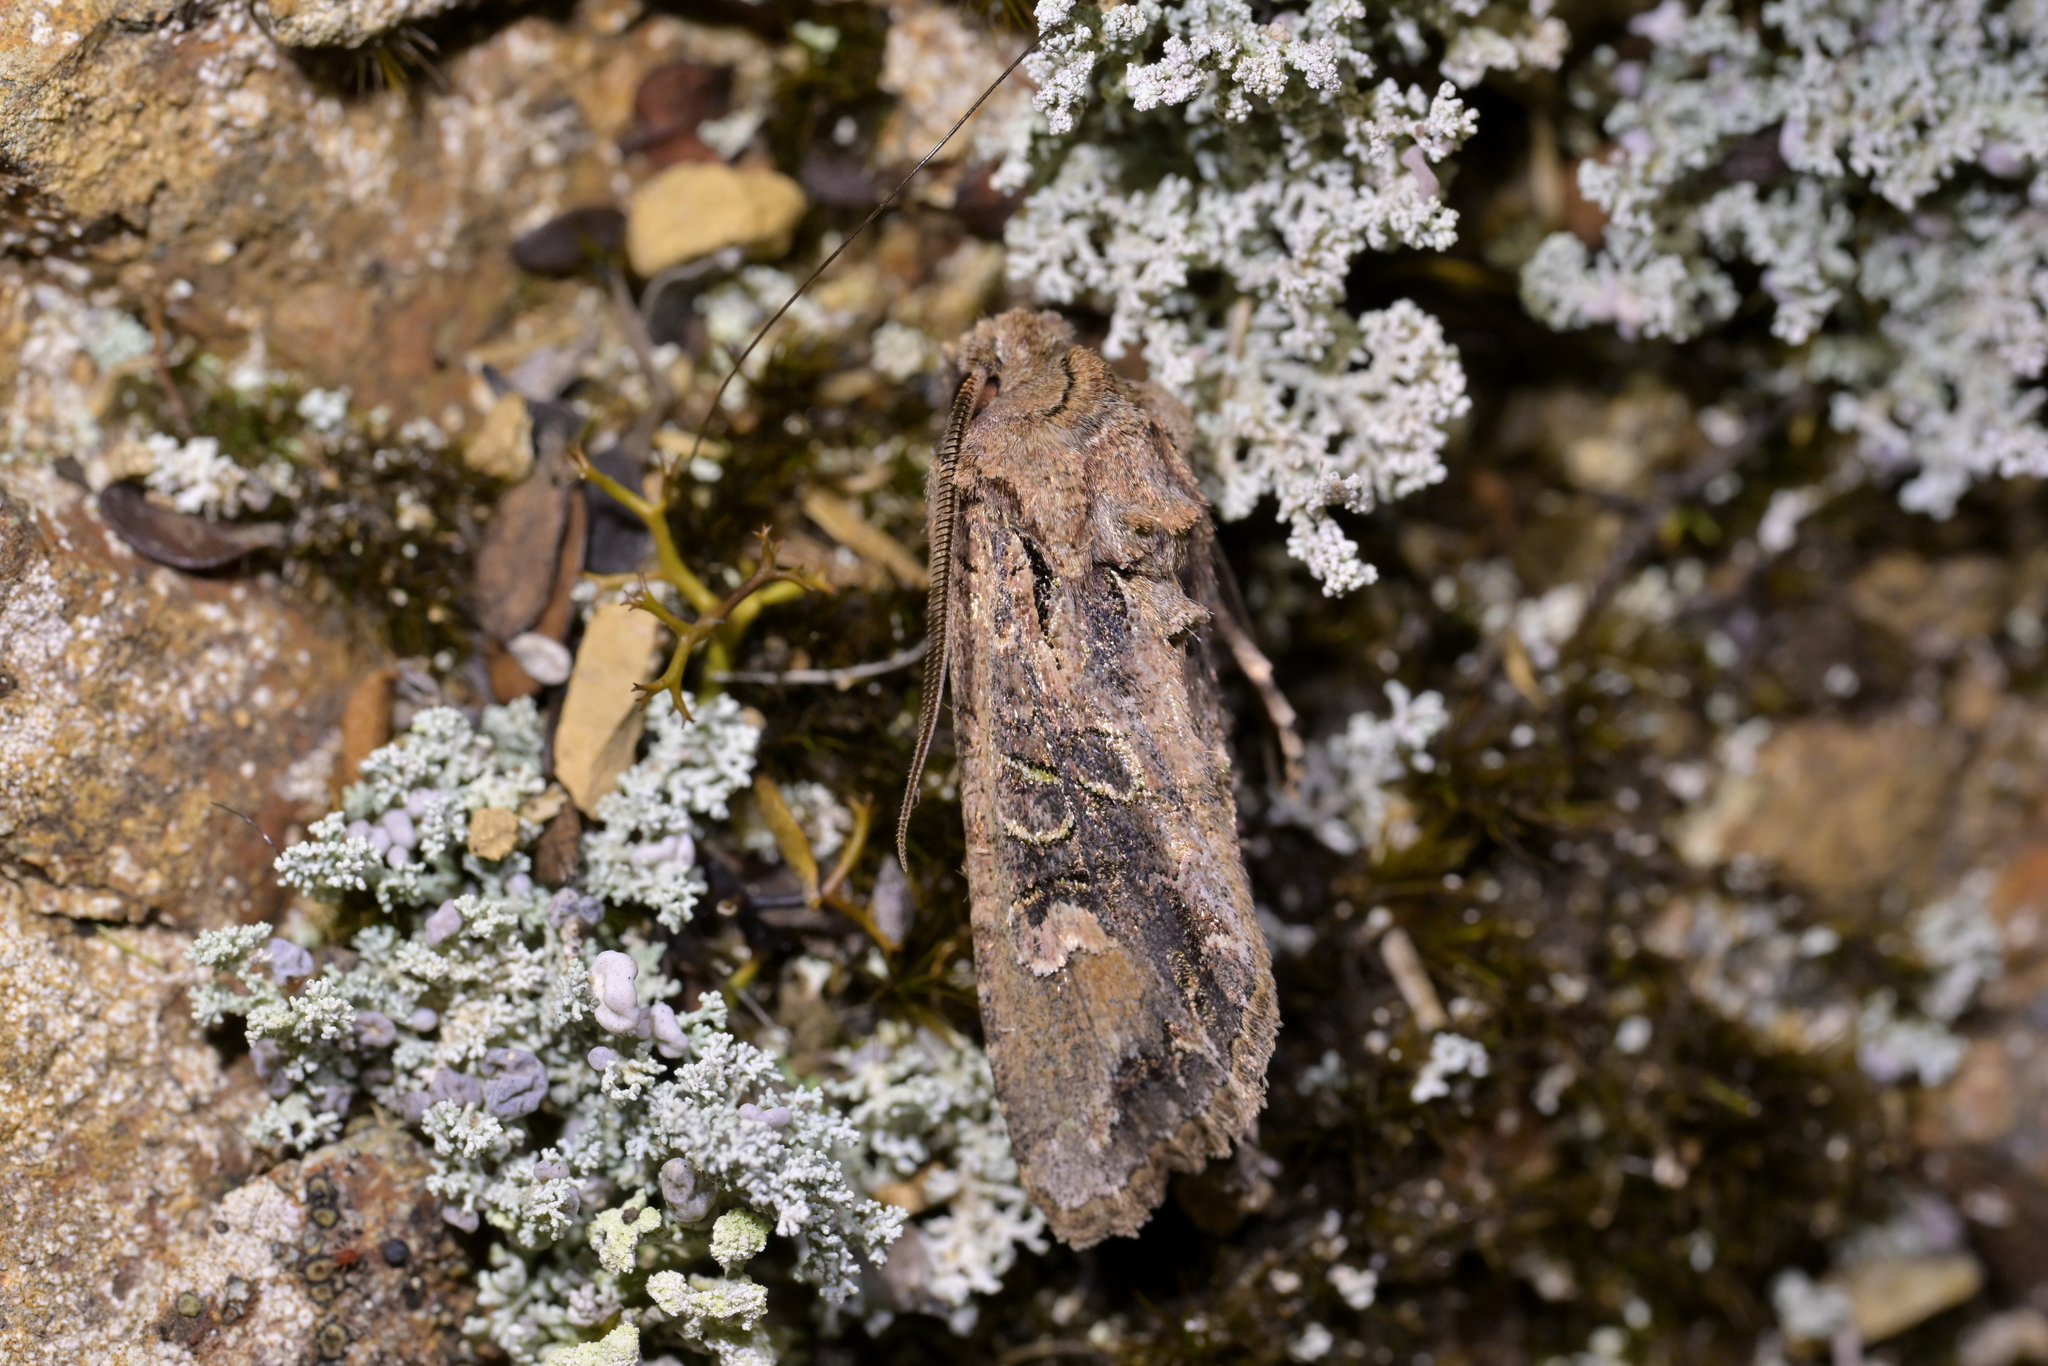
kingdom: Animalia
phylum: Arthropoda
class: Insecta
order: Lepidoptera
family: Noctuidae
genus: Ichneutica
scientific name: Ichneutica insignis
